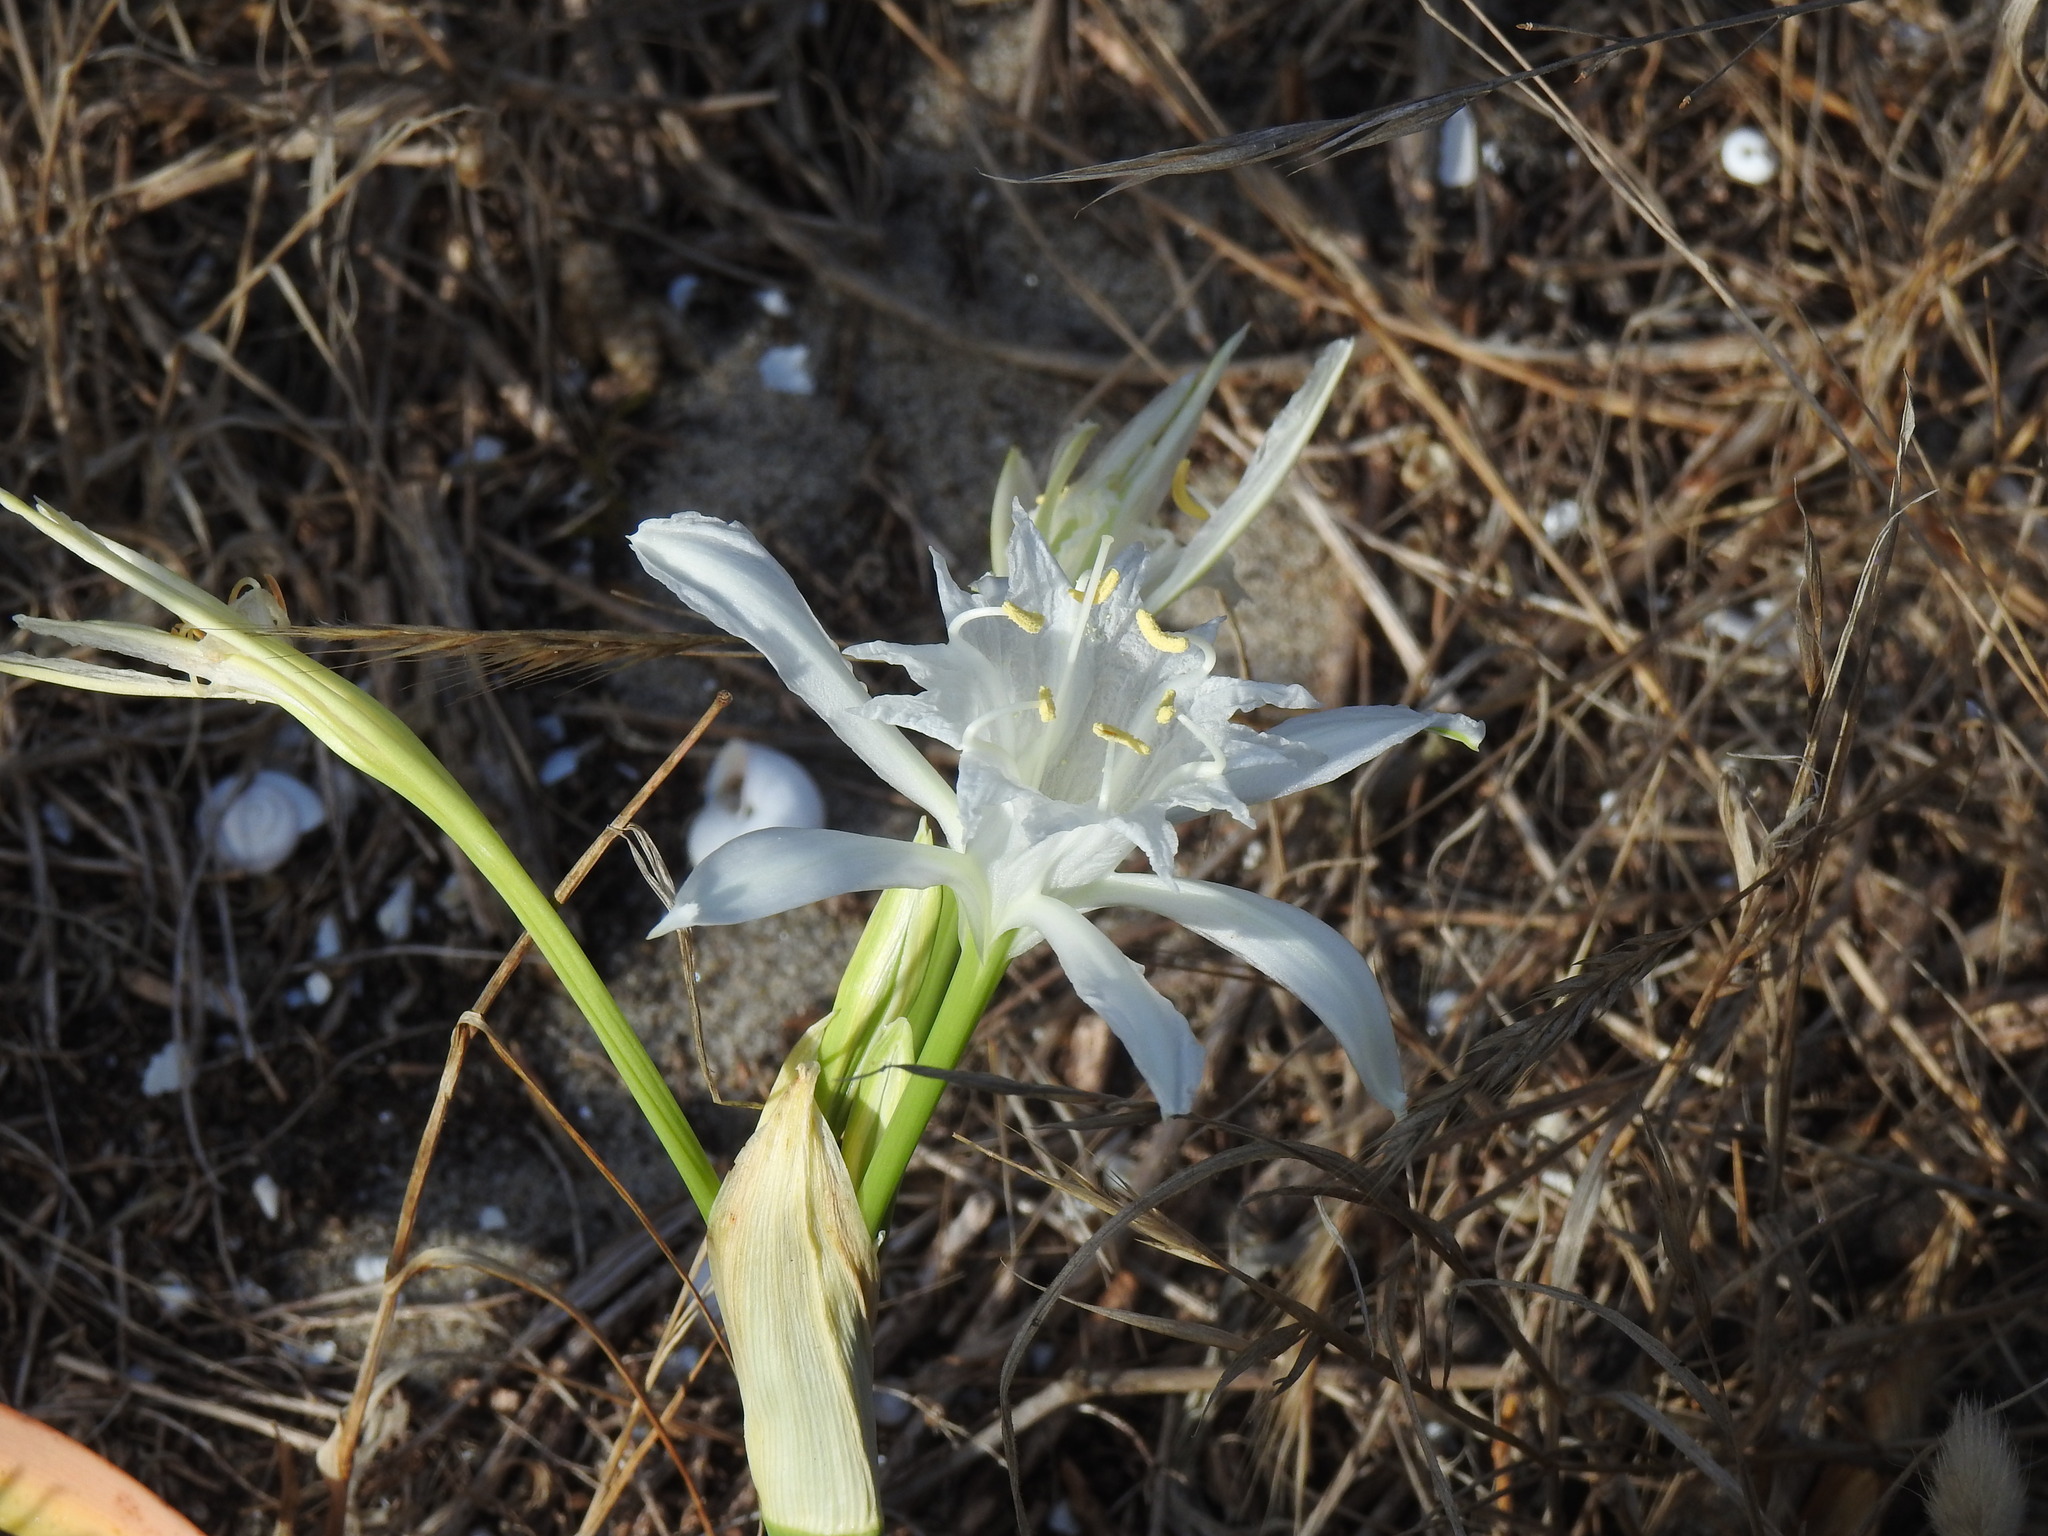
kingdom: Plantae
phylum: Tracheophyta
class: Liliopsida
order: Asparagales
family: Amaryllidaceae
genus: Pancratium
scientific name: Pancratium maritimum
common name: Sea-daffodil
